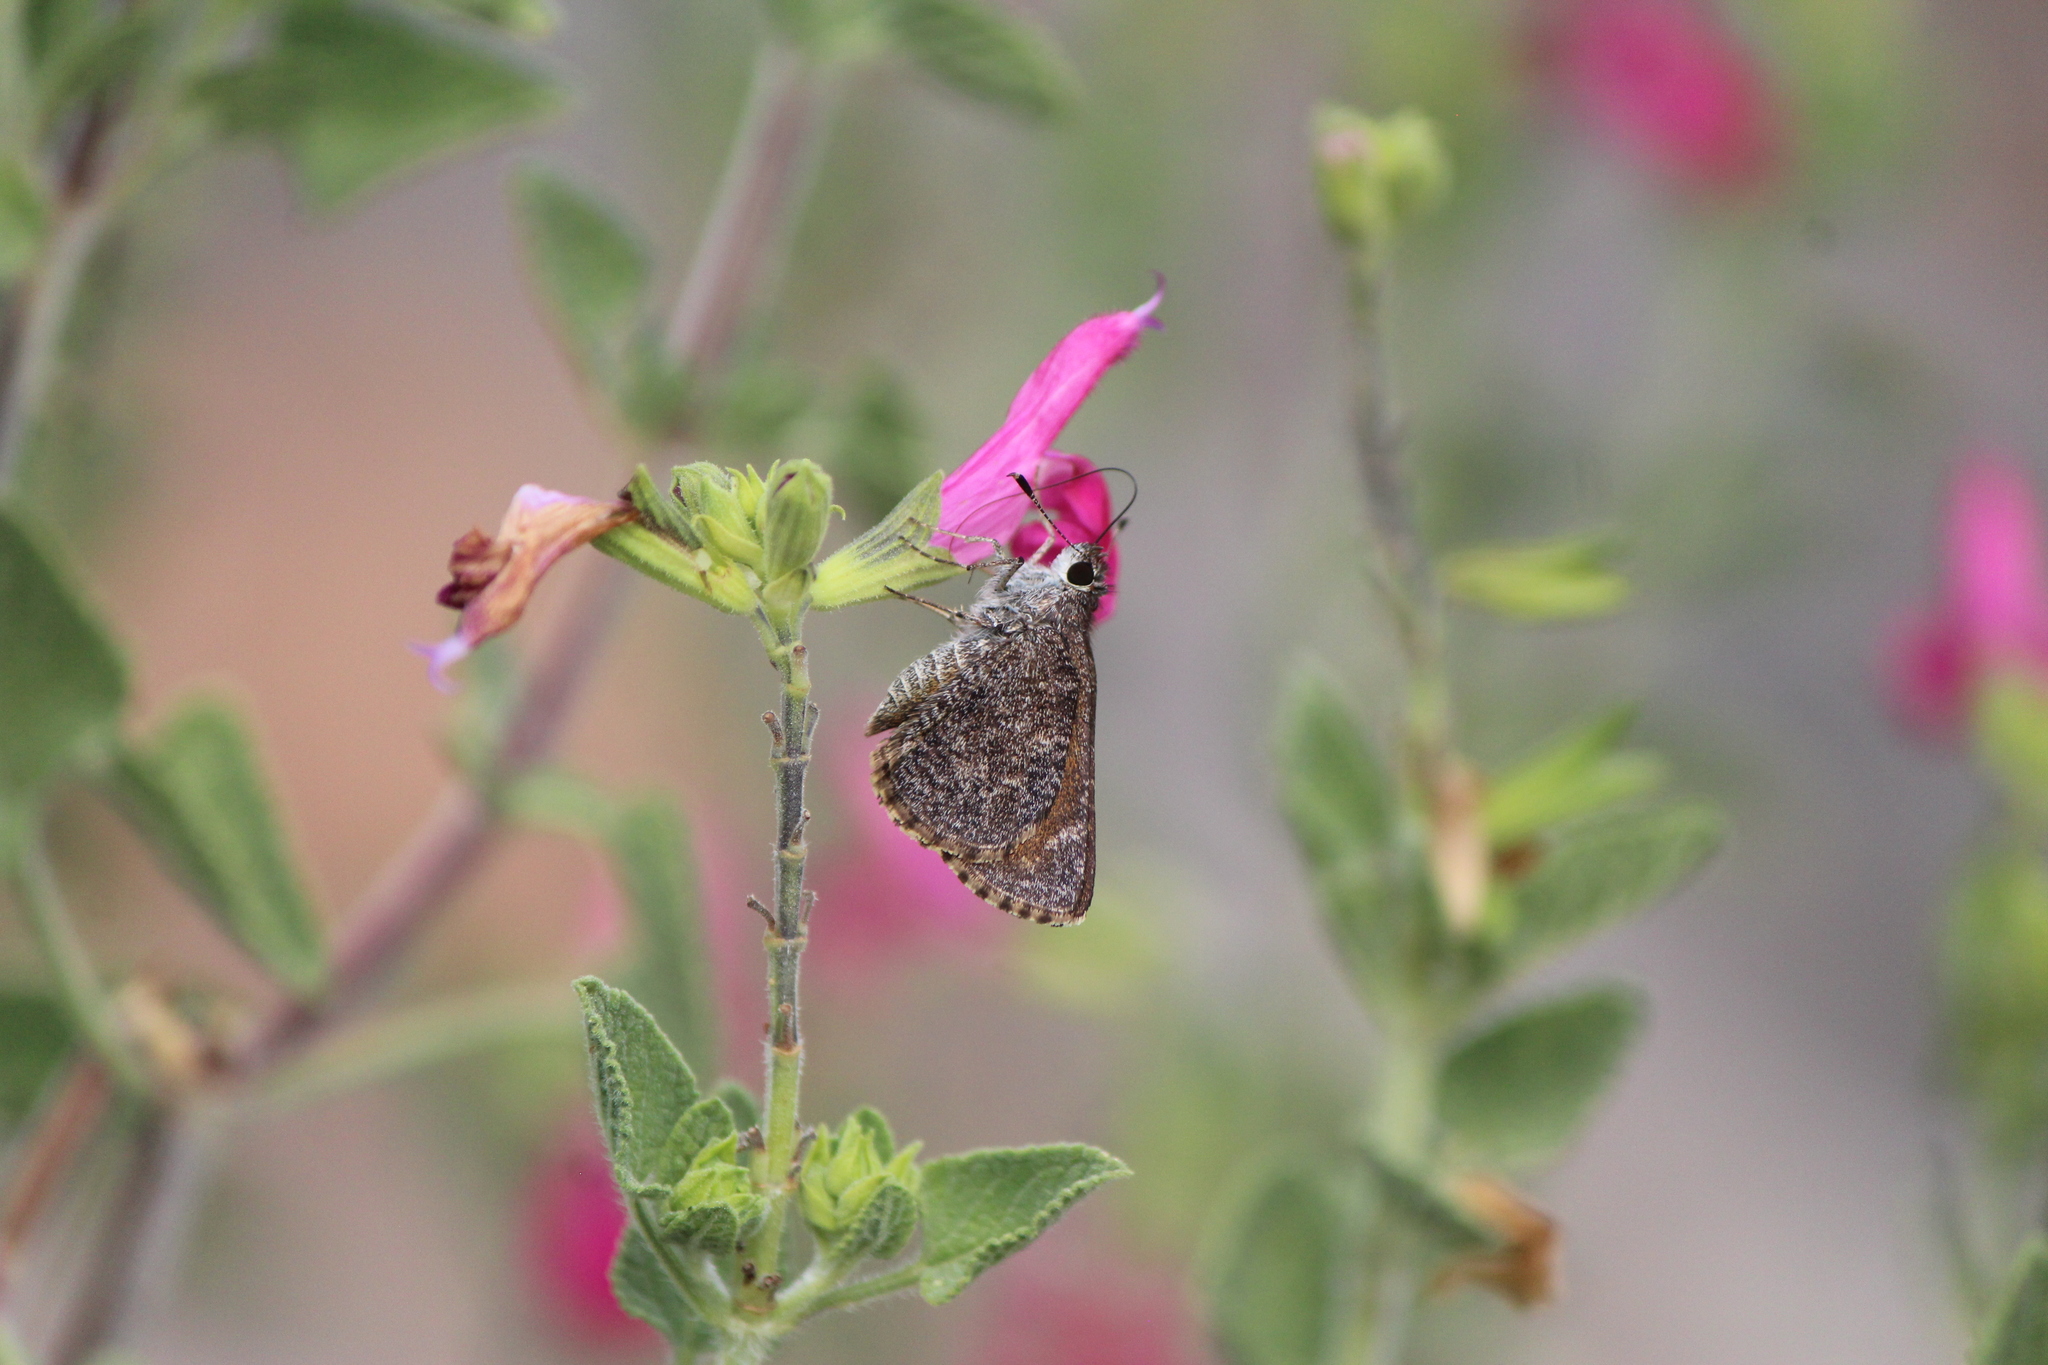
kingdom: Animalia
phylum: Arthropoda
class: Insecta
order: Lepidoptera
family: Hesperiidae
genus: Mastor
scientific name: Mastor fluonia
